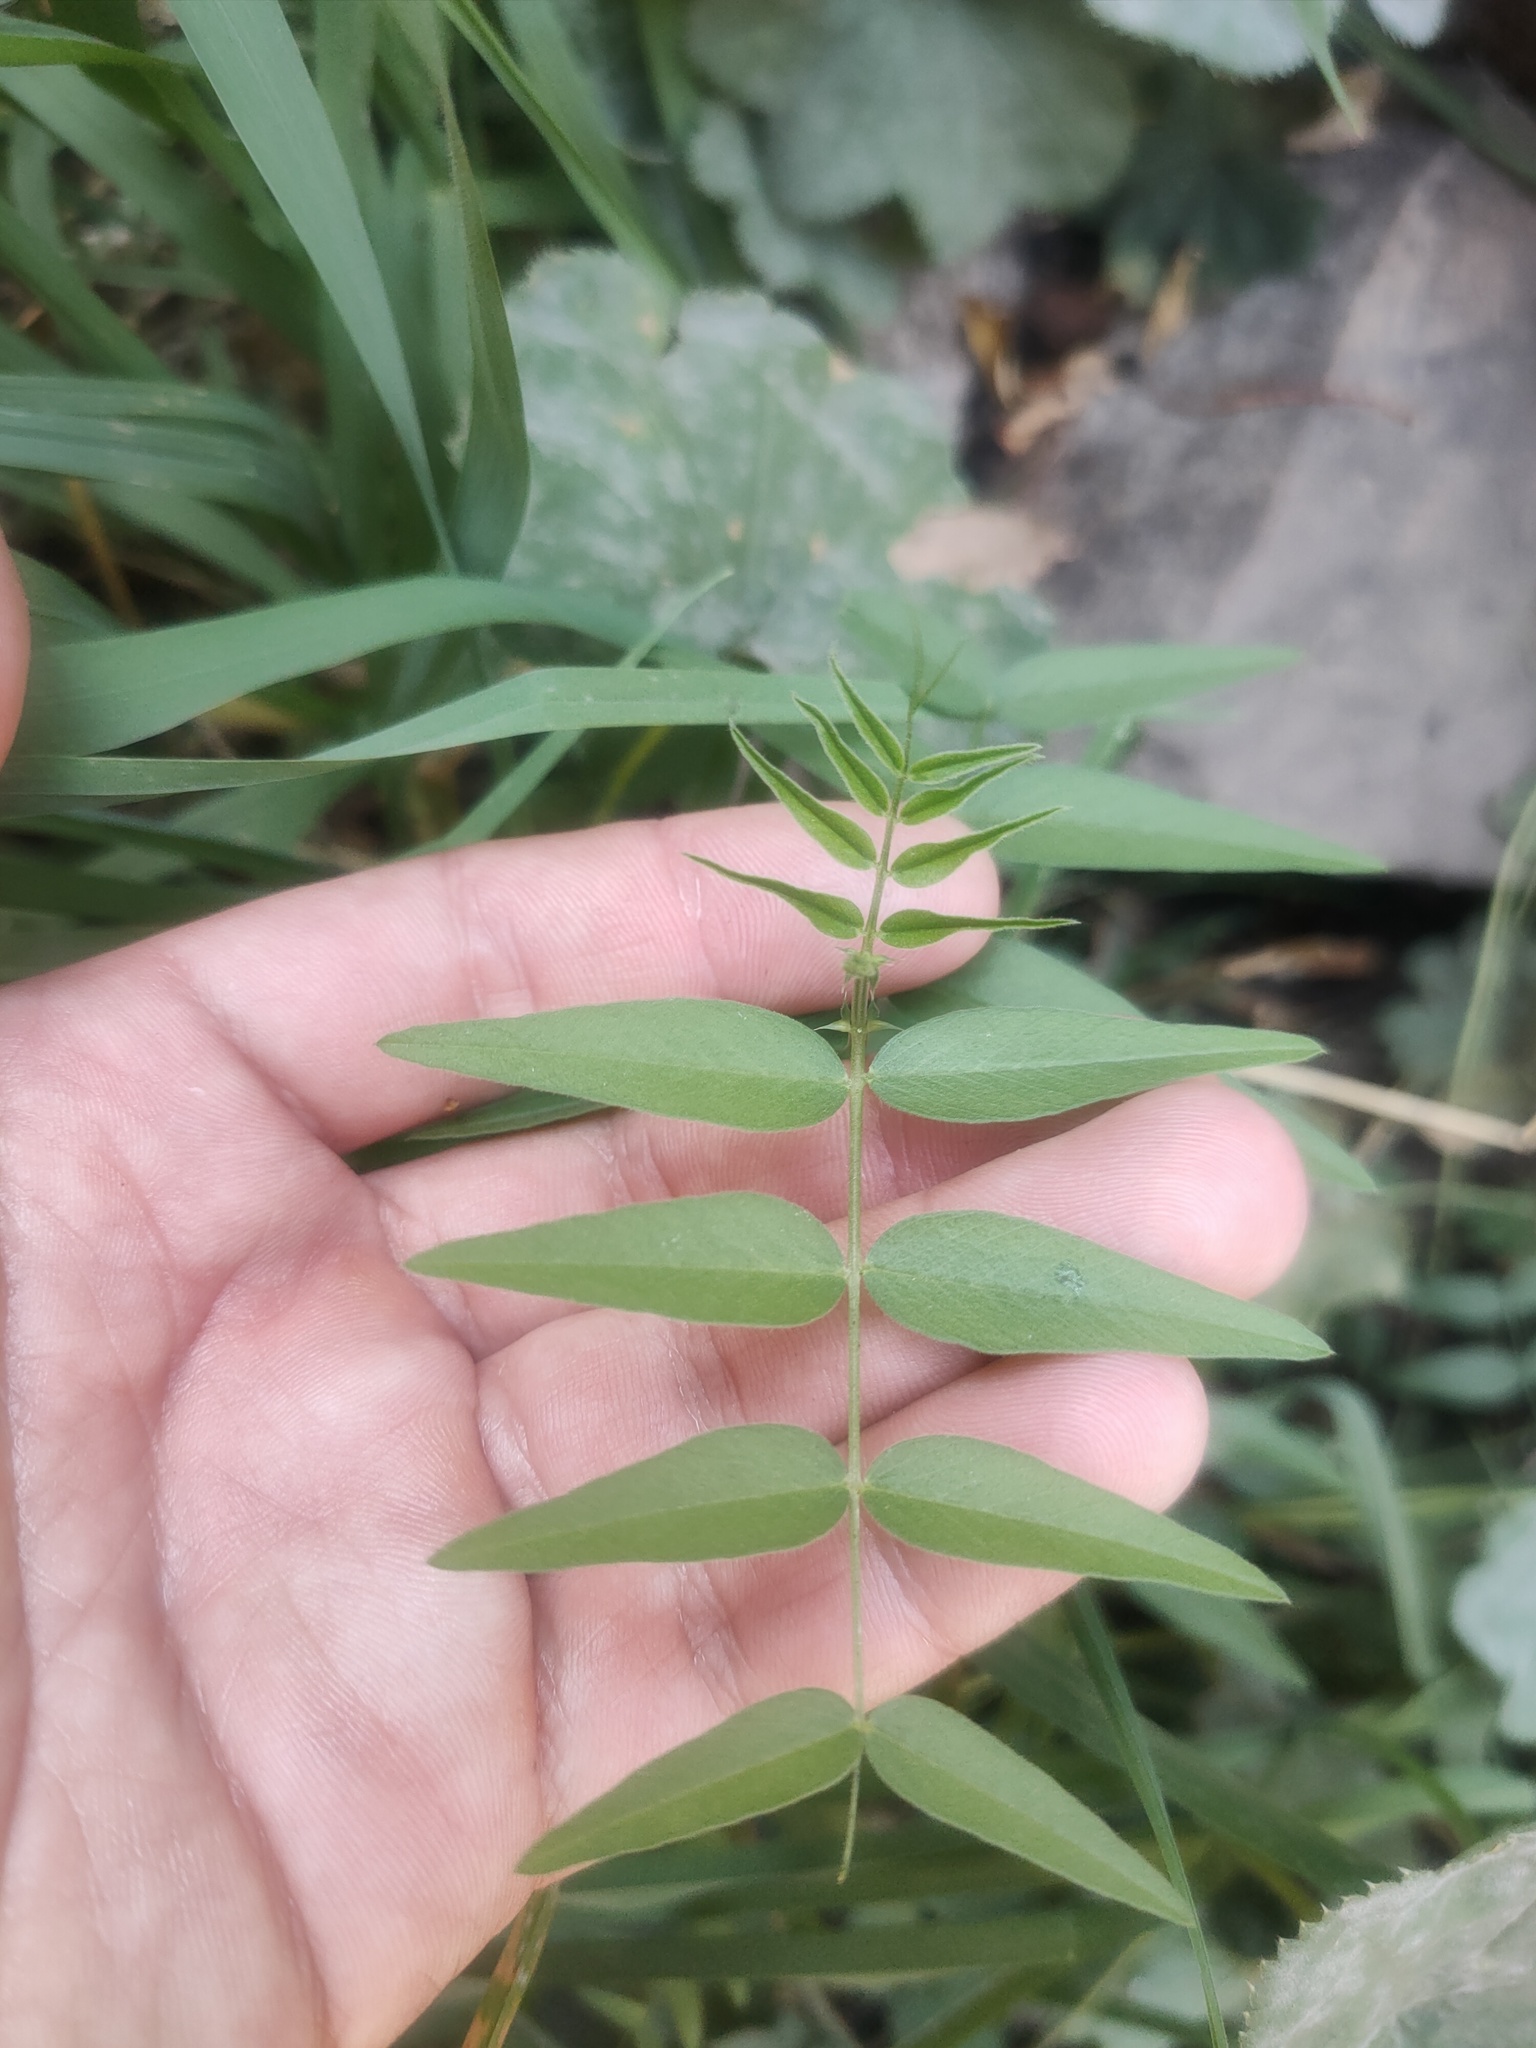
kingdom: Plantae
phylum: Tracheophyta
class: Magnoliopsida
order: Fabales
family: Fabaceae
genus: Vicia
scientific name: Vicia sepium
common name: Bush vetch
